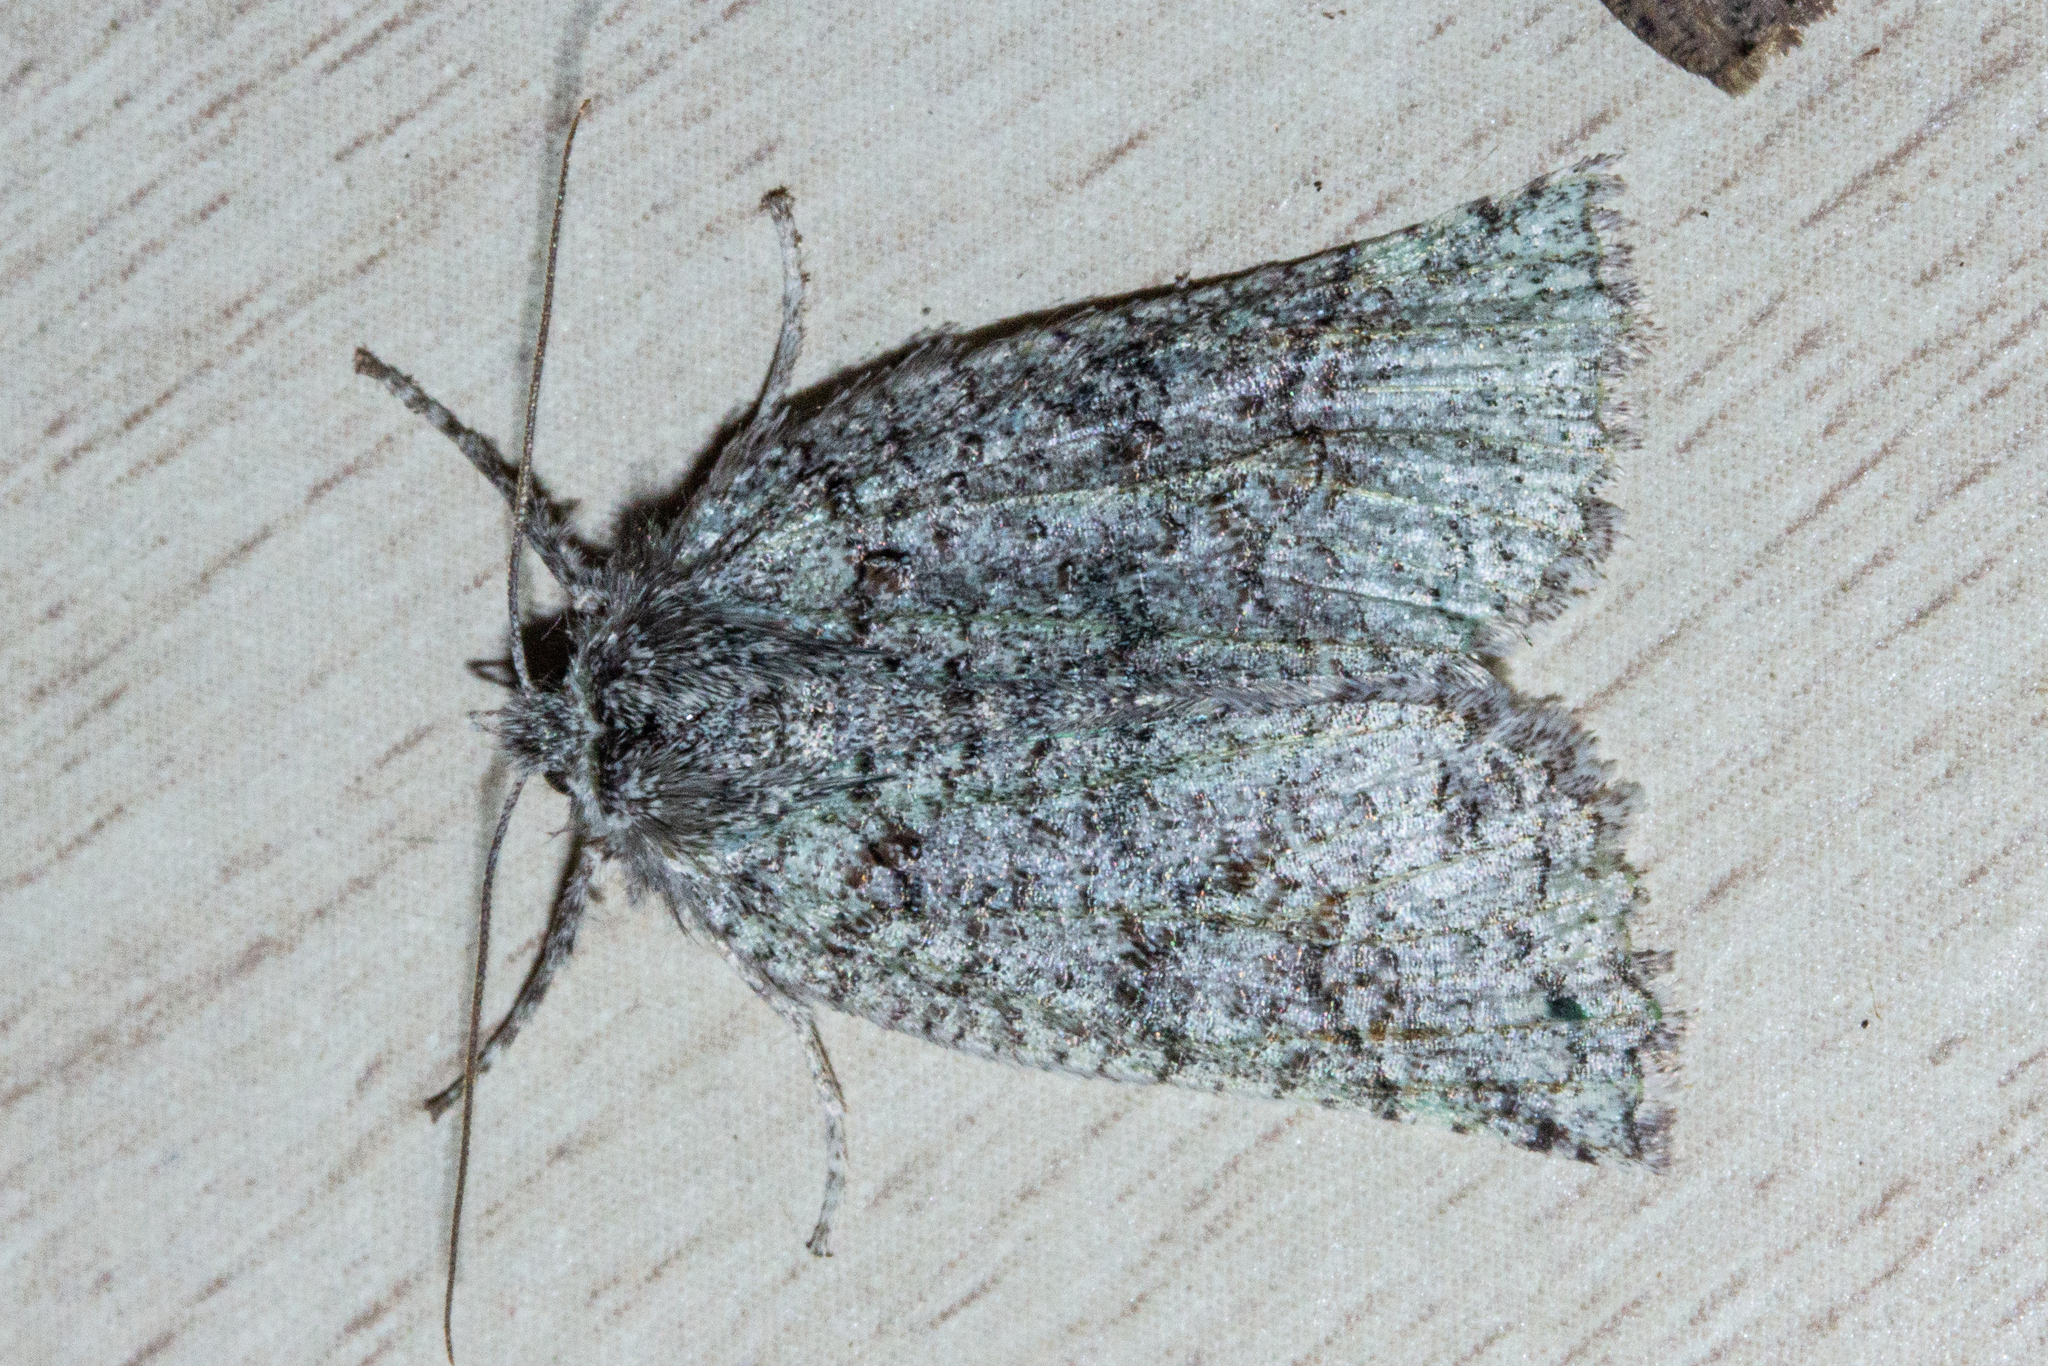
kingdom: Animalia
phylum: Arthropoda
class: Insecta
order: Lepidoptera
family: Geometridae
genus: Declana
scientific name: Declana floccosa
